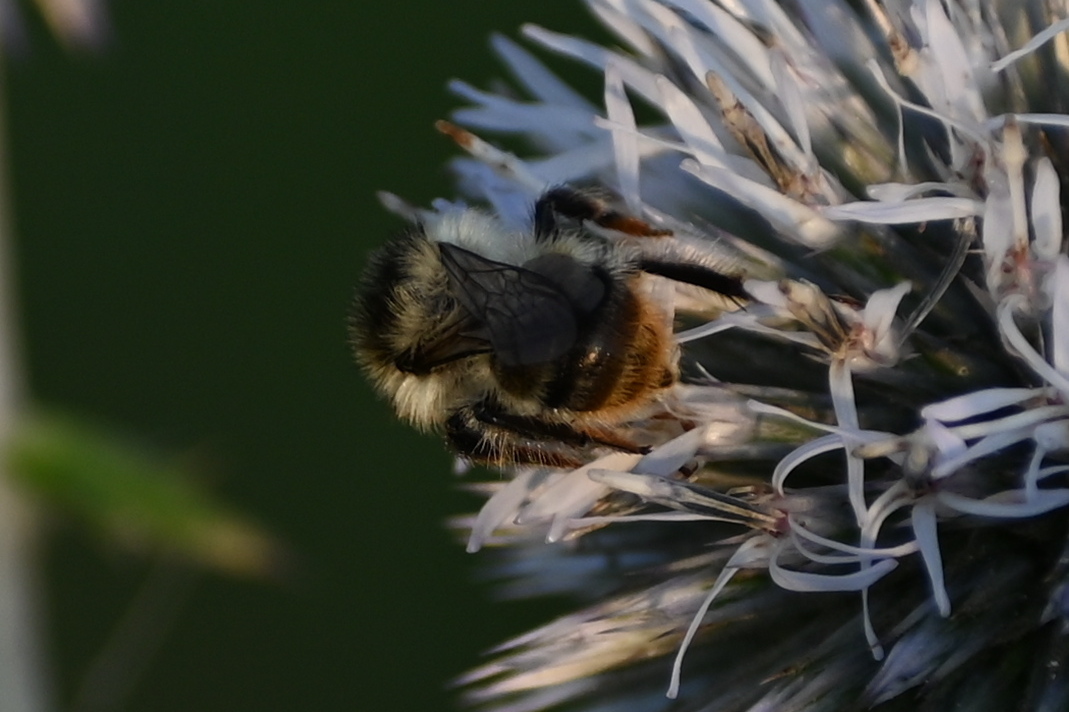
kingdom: Animalia
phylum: Arthropoda
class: Insecta
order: Hymenoptera
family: Apidae
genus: Bombus
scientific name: Bombus sylvarum
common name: Shrill carder bee
